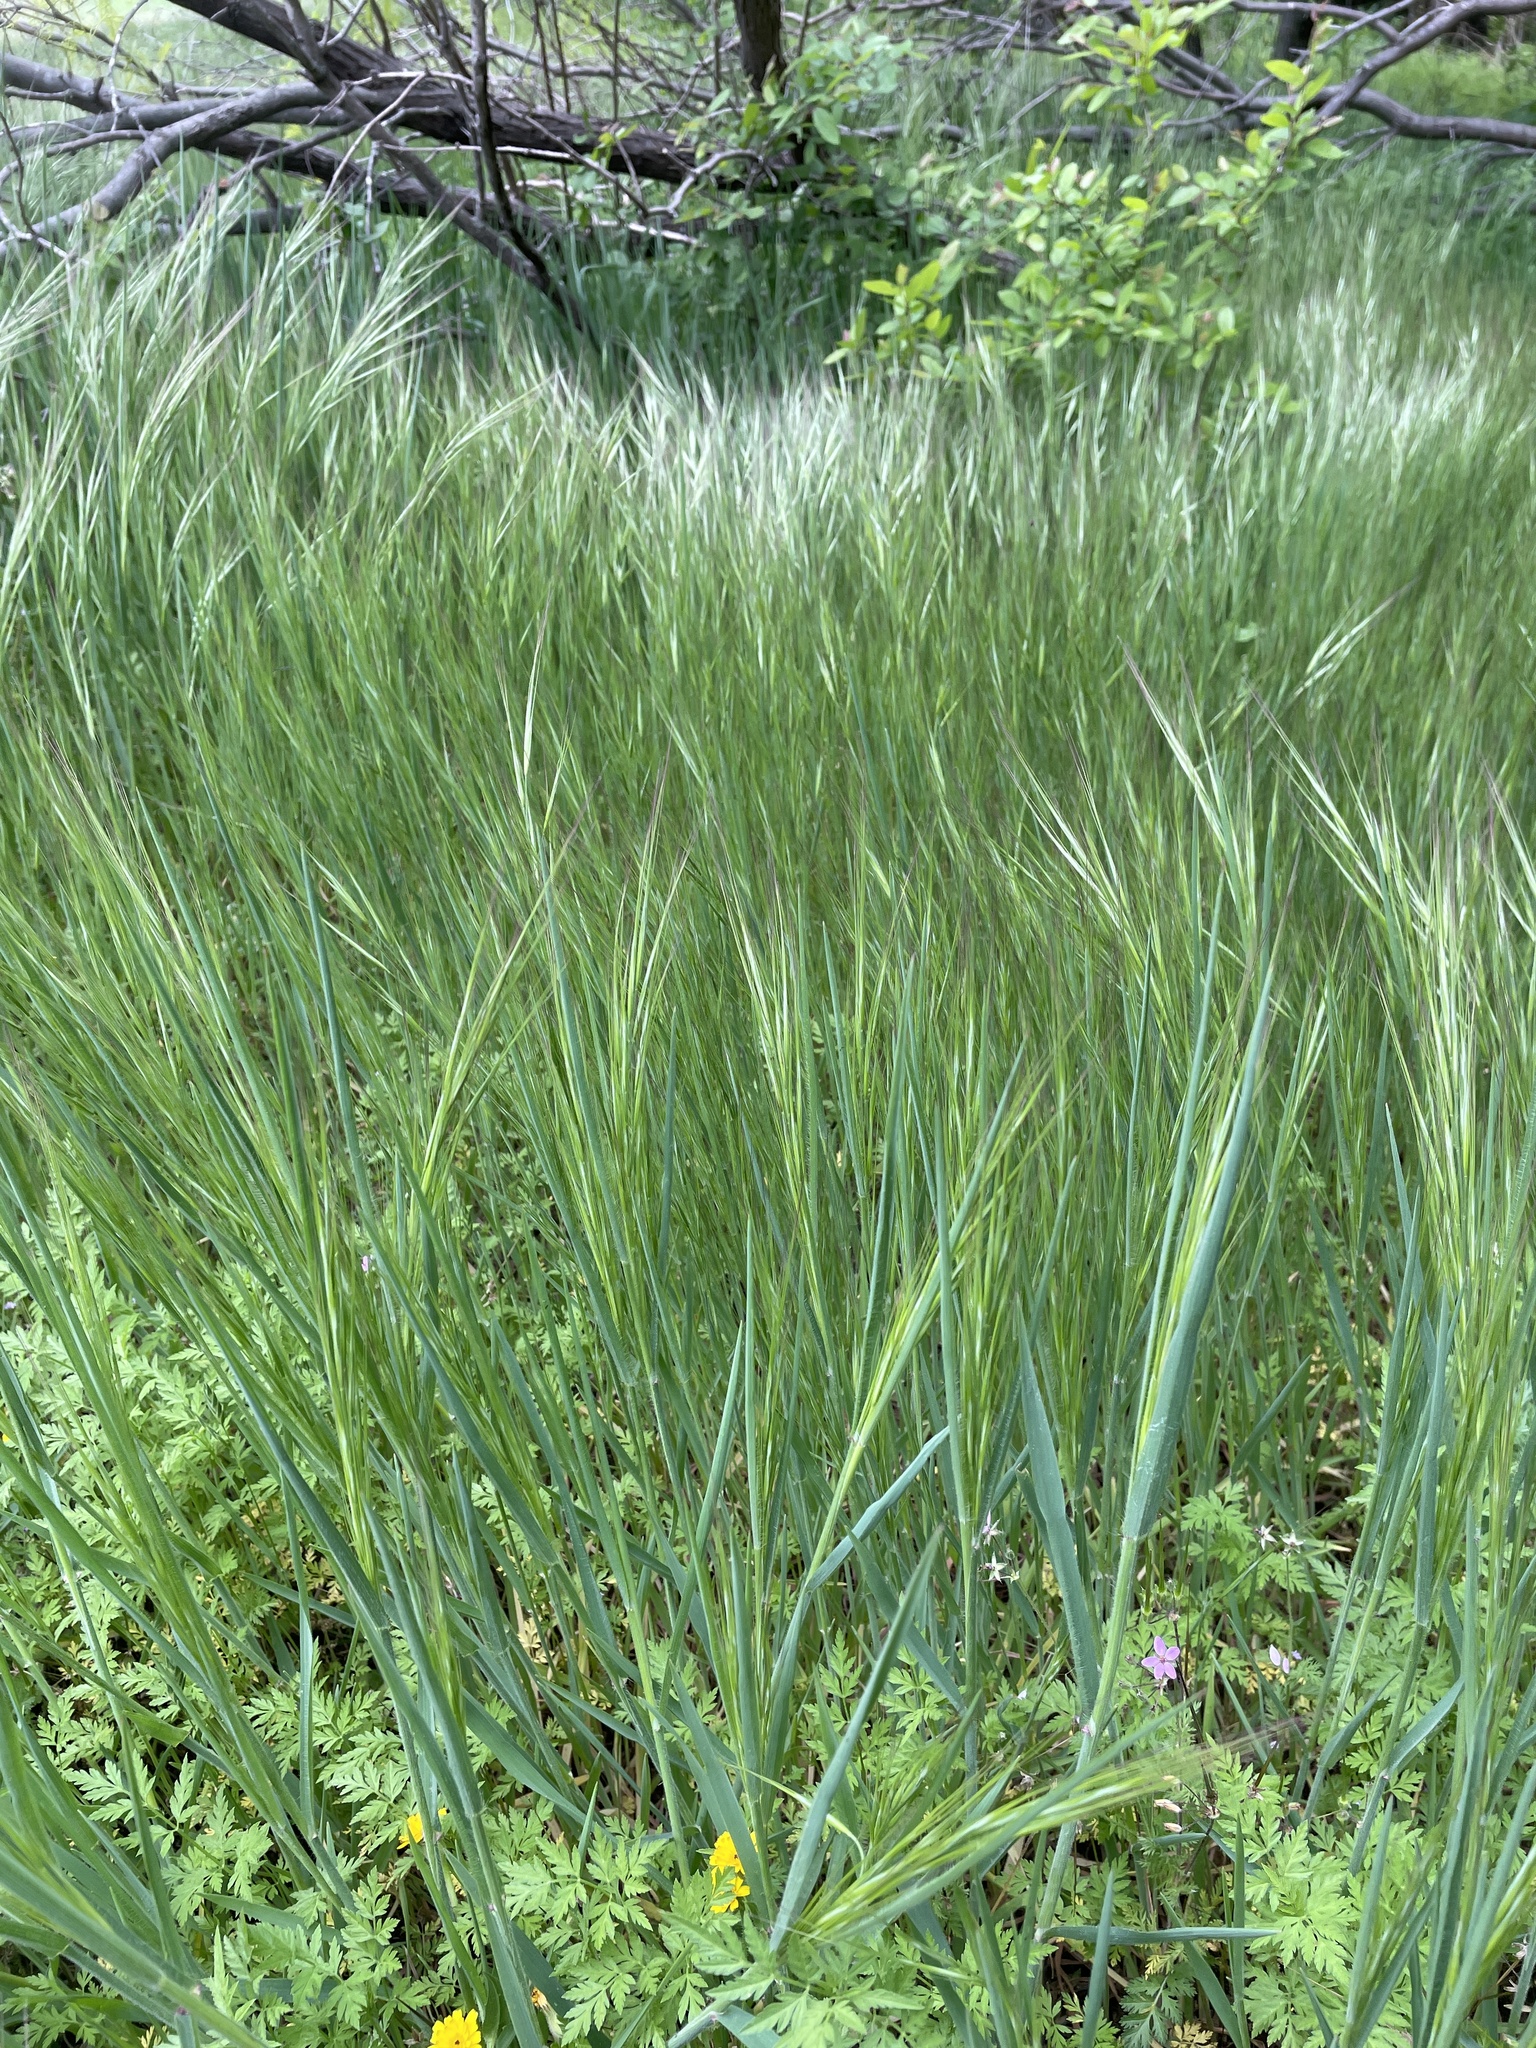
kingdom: Plantae
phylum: Tracheophyta
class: Liliopsida
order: Poales
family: Poaceae
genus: Bromus
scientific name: Bromus diandrus
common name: Ripgut brome
